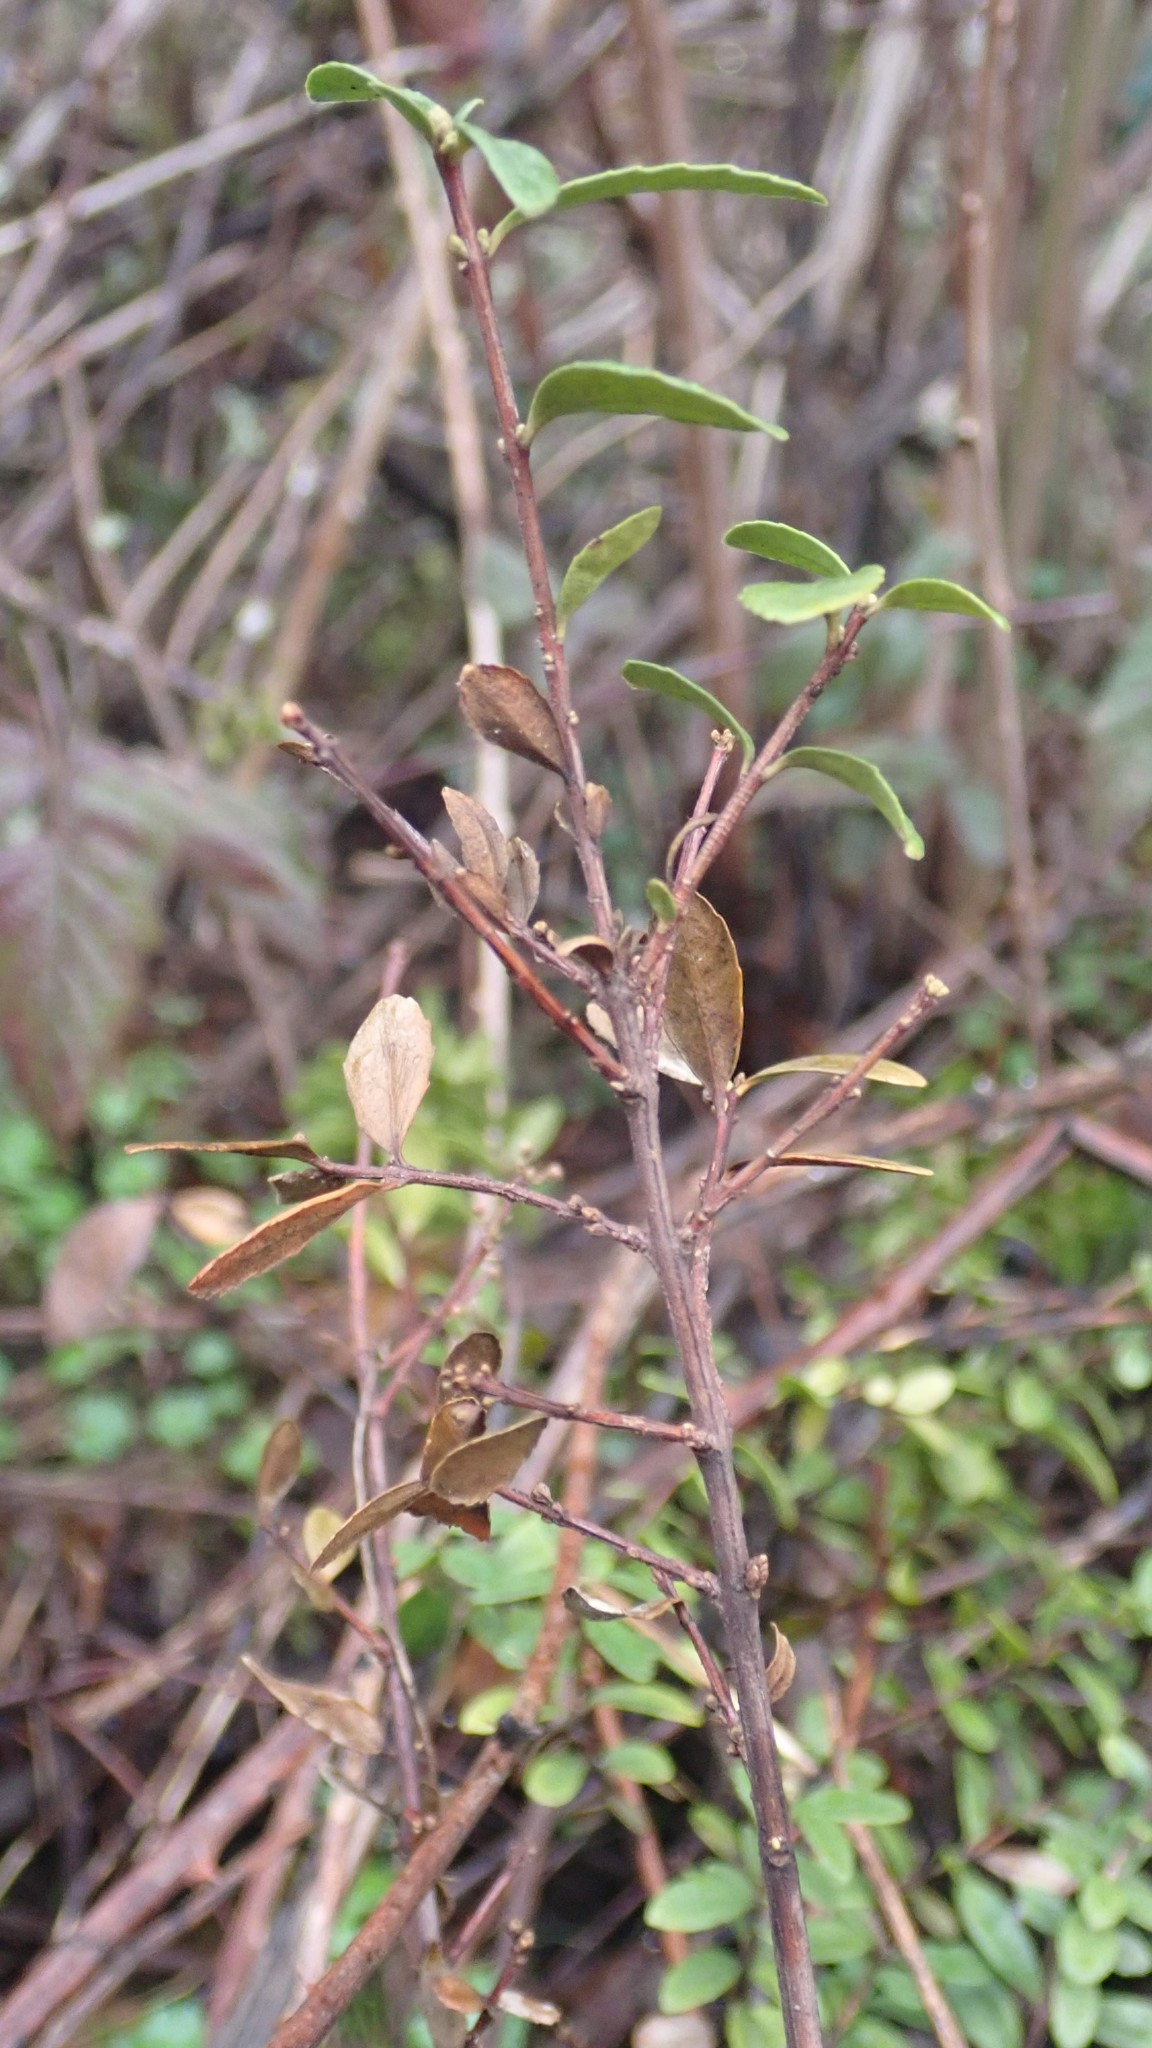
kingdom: Plantae
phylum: Tracheophyta
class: Magnoliopsida
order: Celastrales
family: Celastraceae
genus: Paxistima
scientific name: Paxistima myrsinites
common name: Mountain-lover
